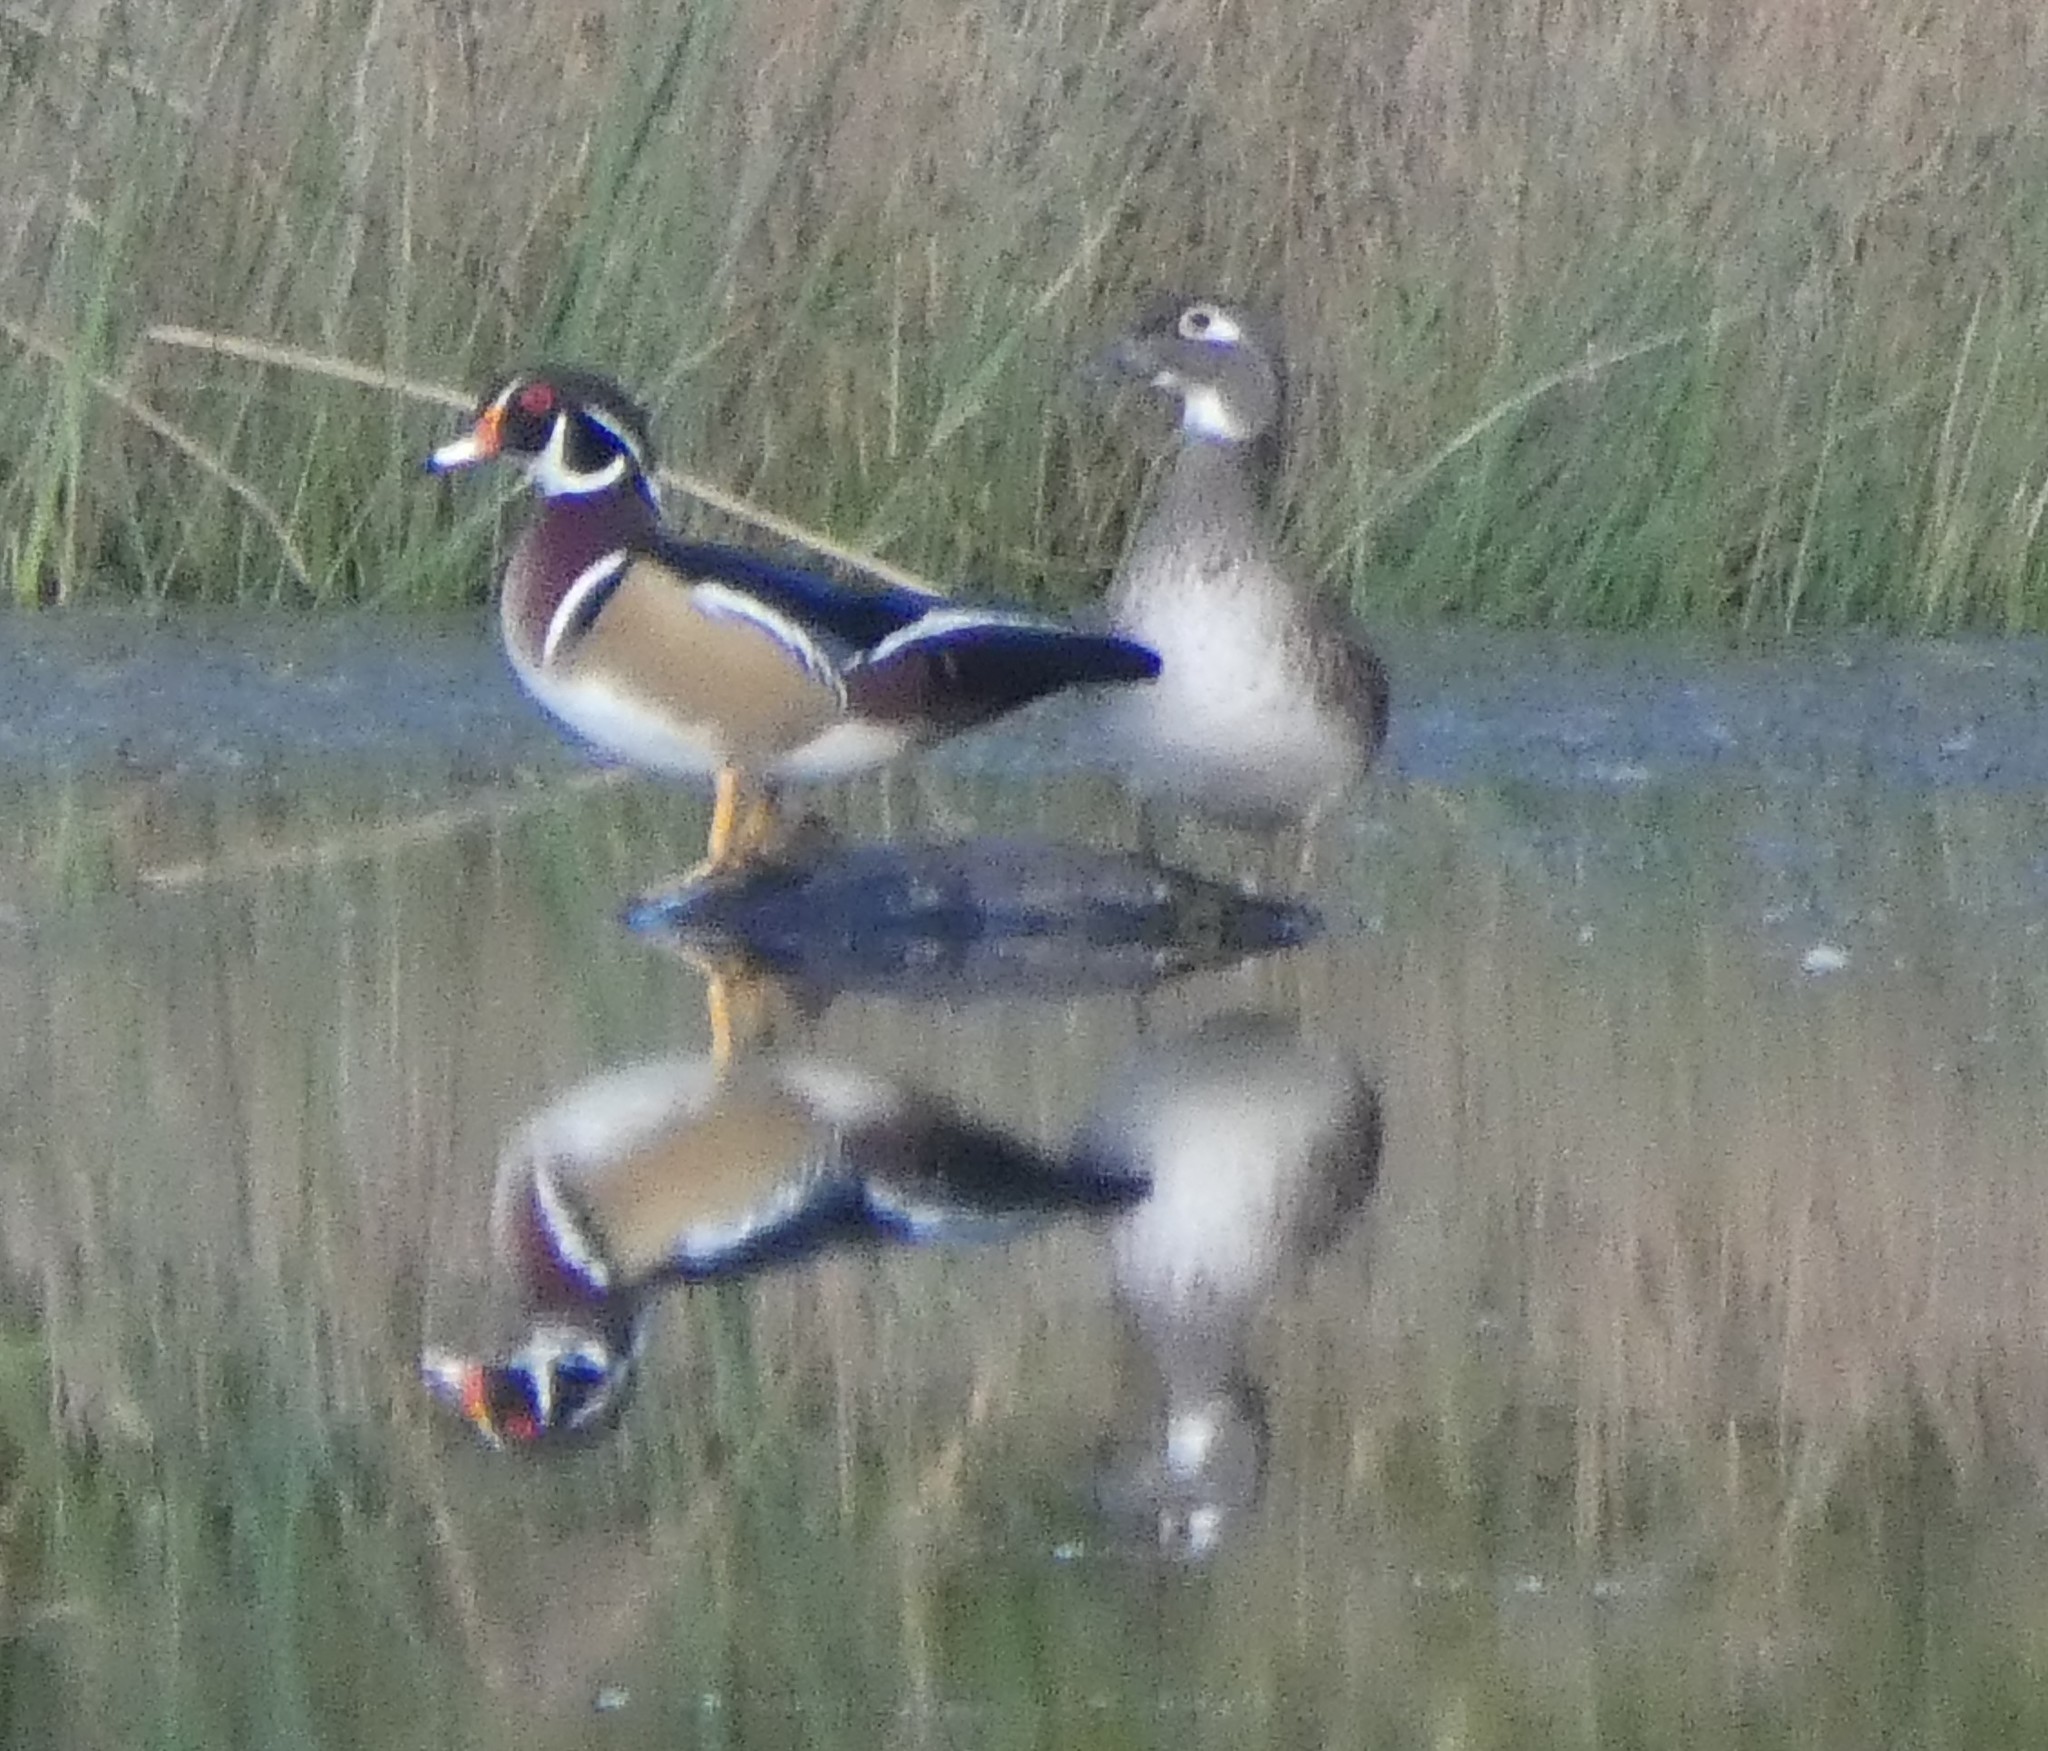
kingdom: Animalia
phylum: Chordata
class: Aves
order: Anseriformes
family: Anatidae
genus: Aix
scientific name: Aix sponsa
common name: Wood duck
